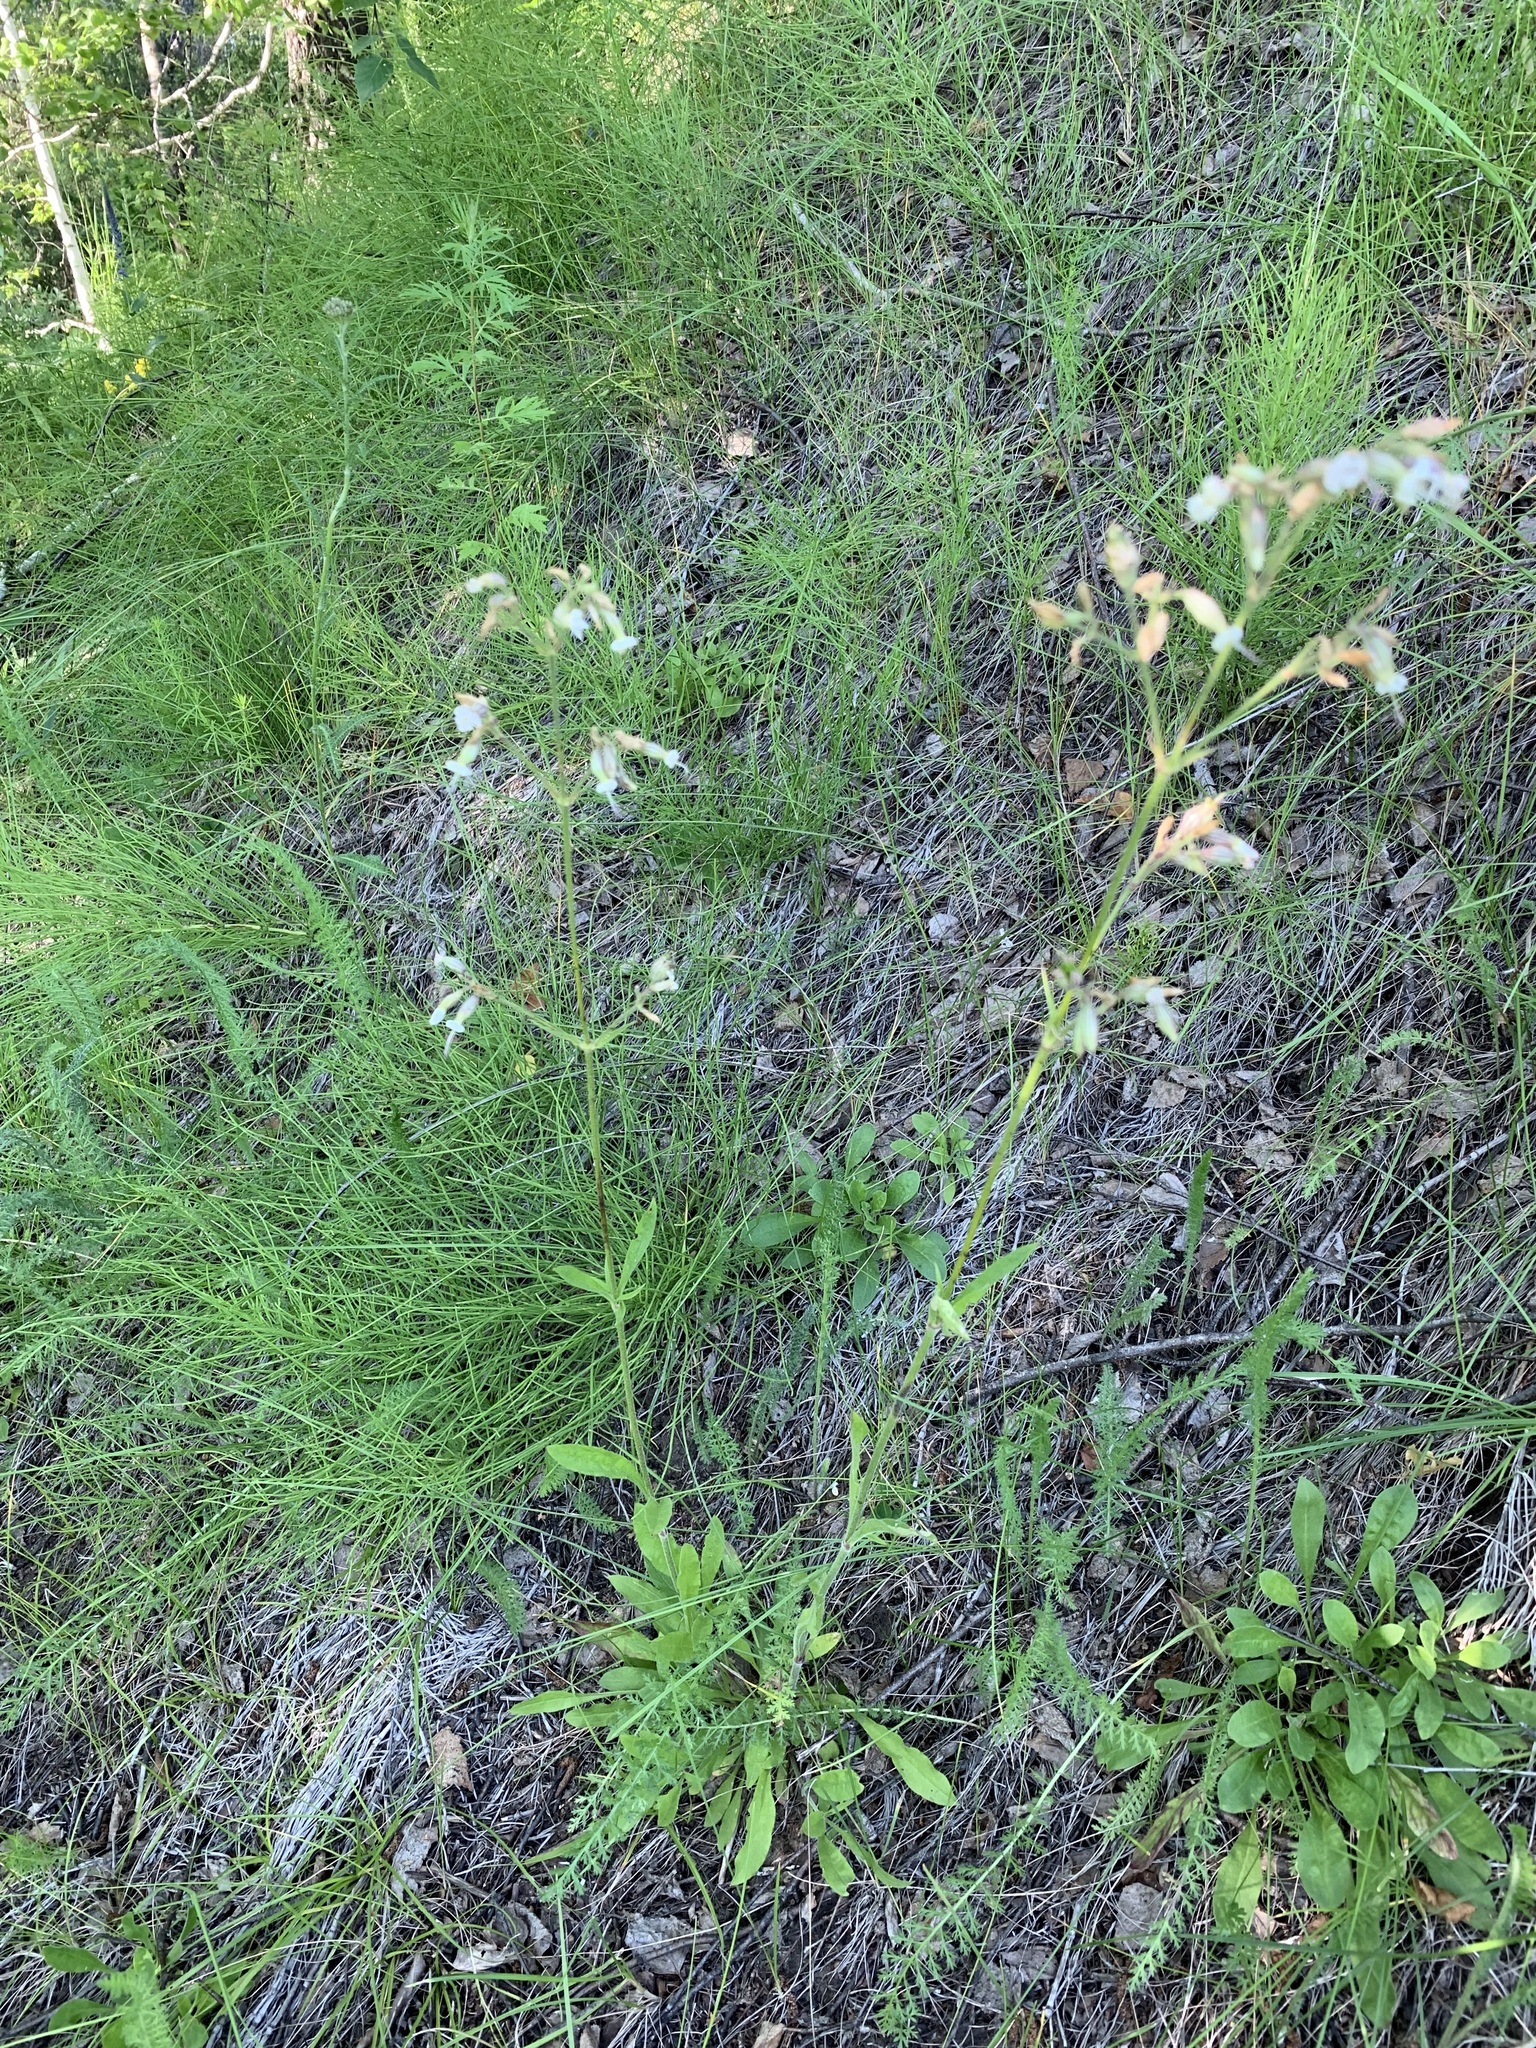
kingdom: Plantae
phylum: Tracheophyta
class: Magnoliopsida
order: Caryophyllales
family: Caryophyllaceae
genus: Silene
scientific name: Silene nutans
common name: Nottingham catchfly
